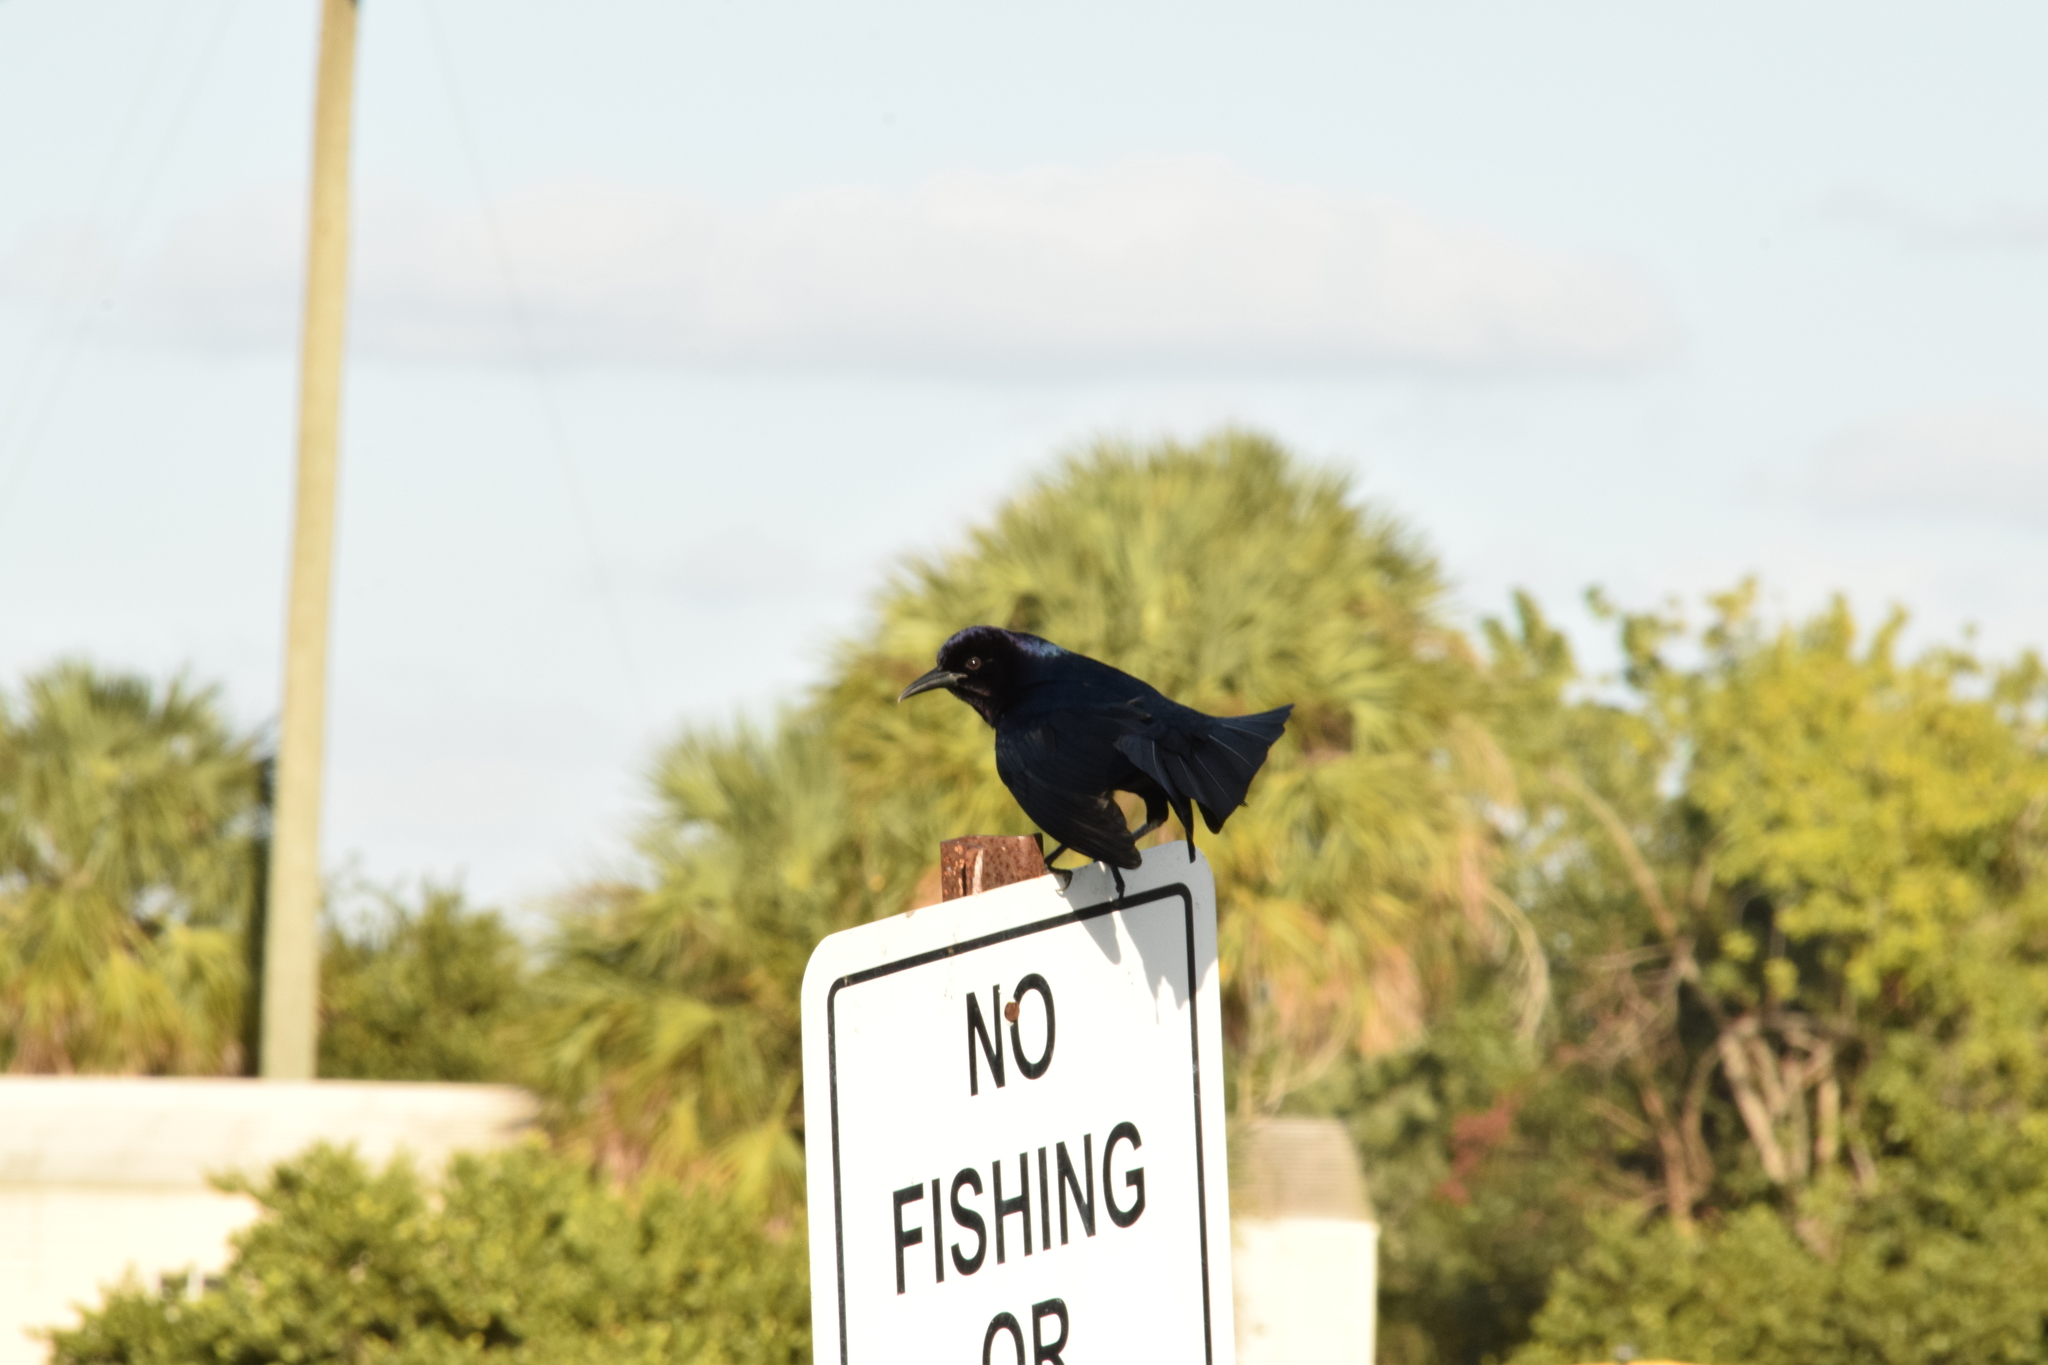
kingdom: Animalia
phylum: Chordata
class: Aves
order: Passeriformes
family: Icteridae
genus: Quiscalus
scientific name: Quiscalus major
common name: Boat-tailed grackle
